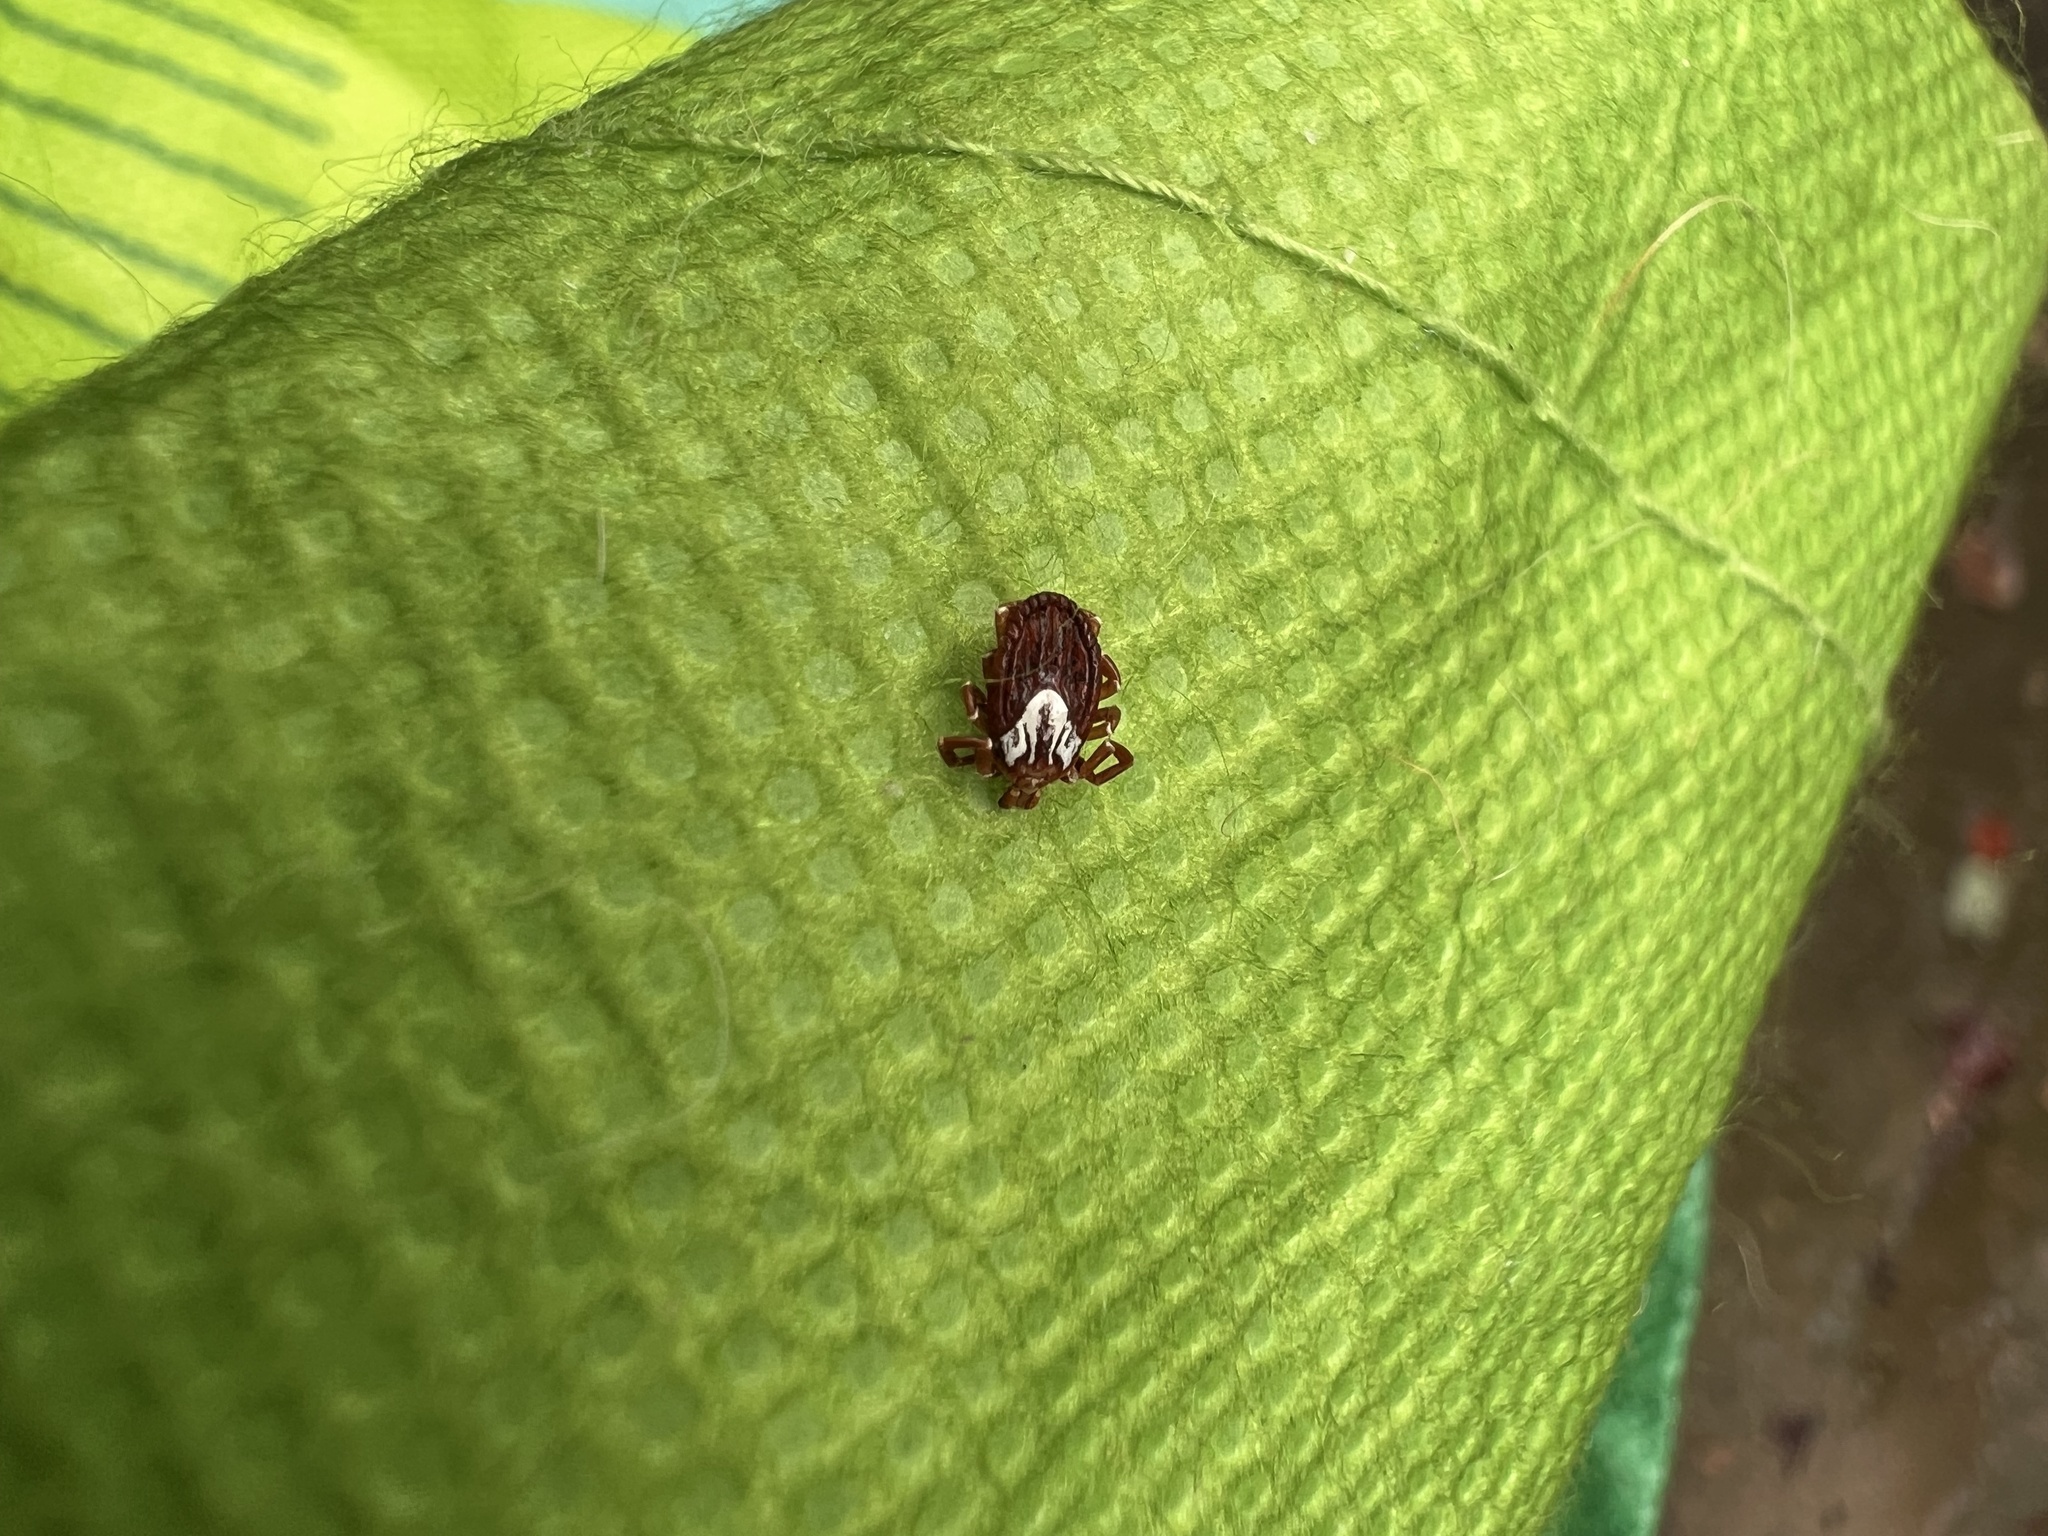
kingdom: Animalia
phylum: Arthropoda
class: Arachnida
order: Ixodida
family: Ixodidae
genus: Amblyomma
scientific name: Amblyomma maculatum
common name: Gulf coast tick
